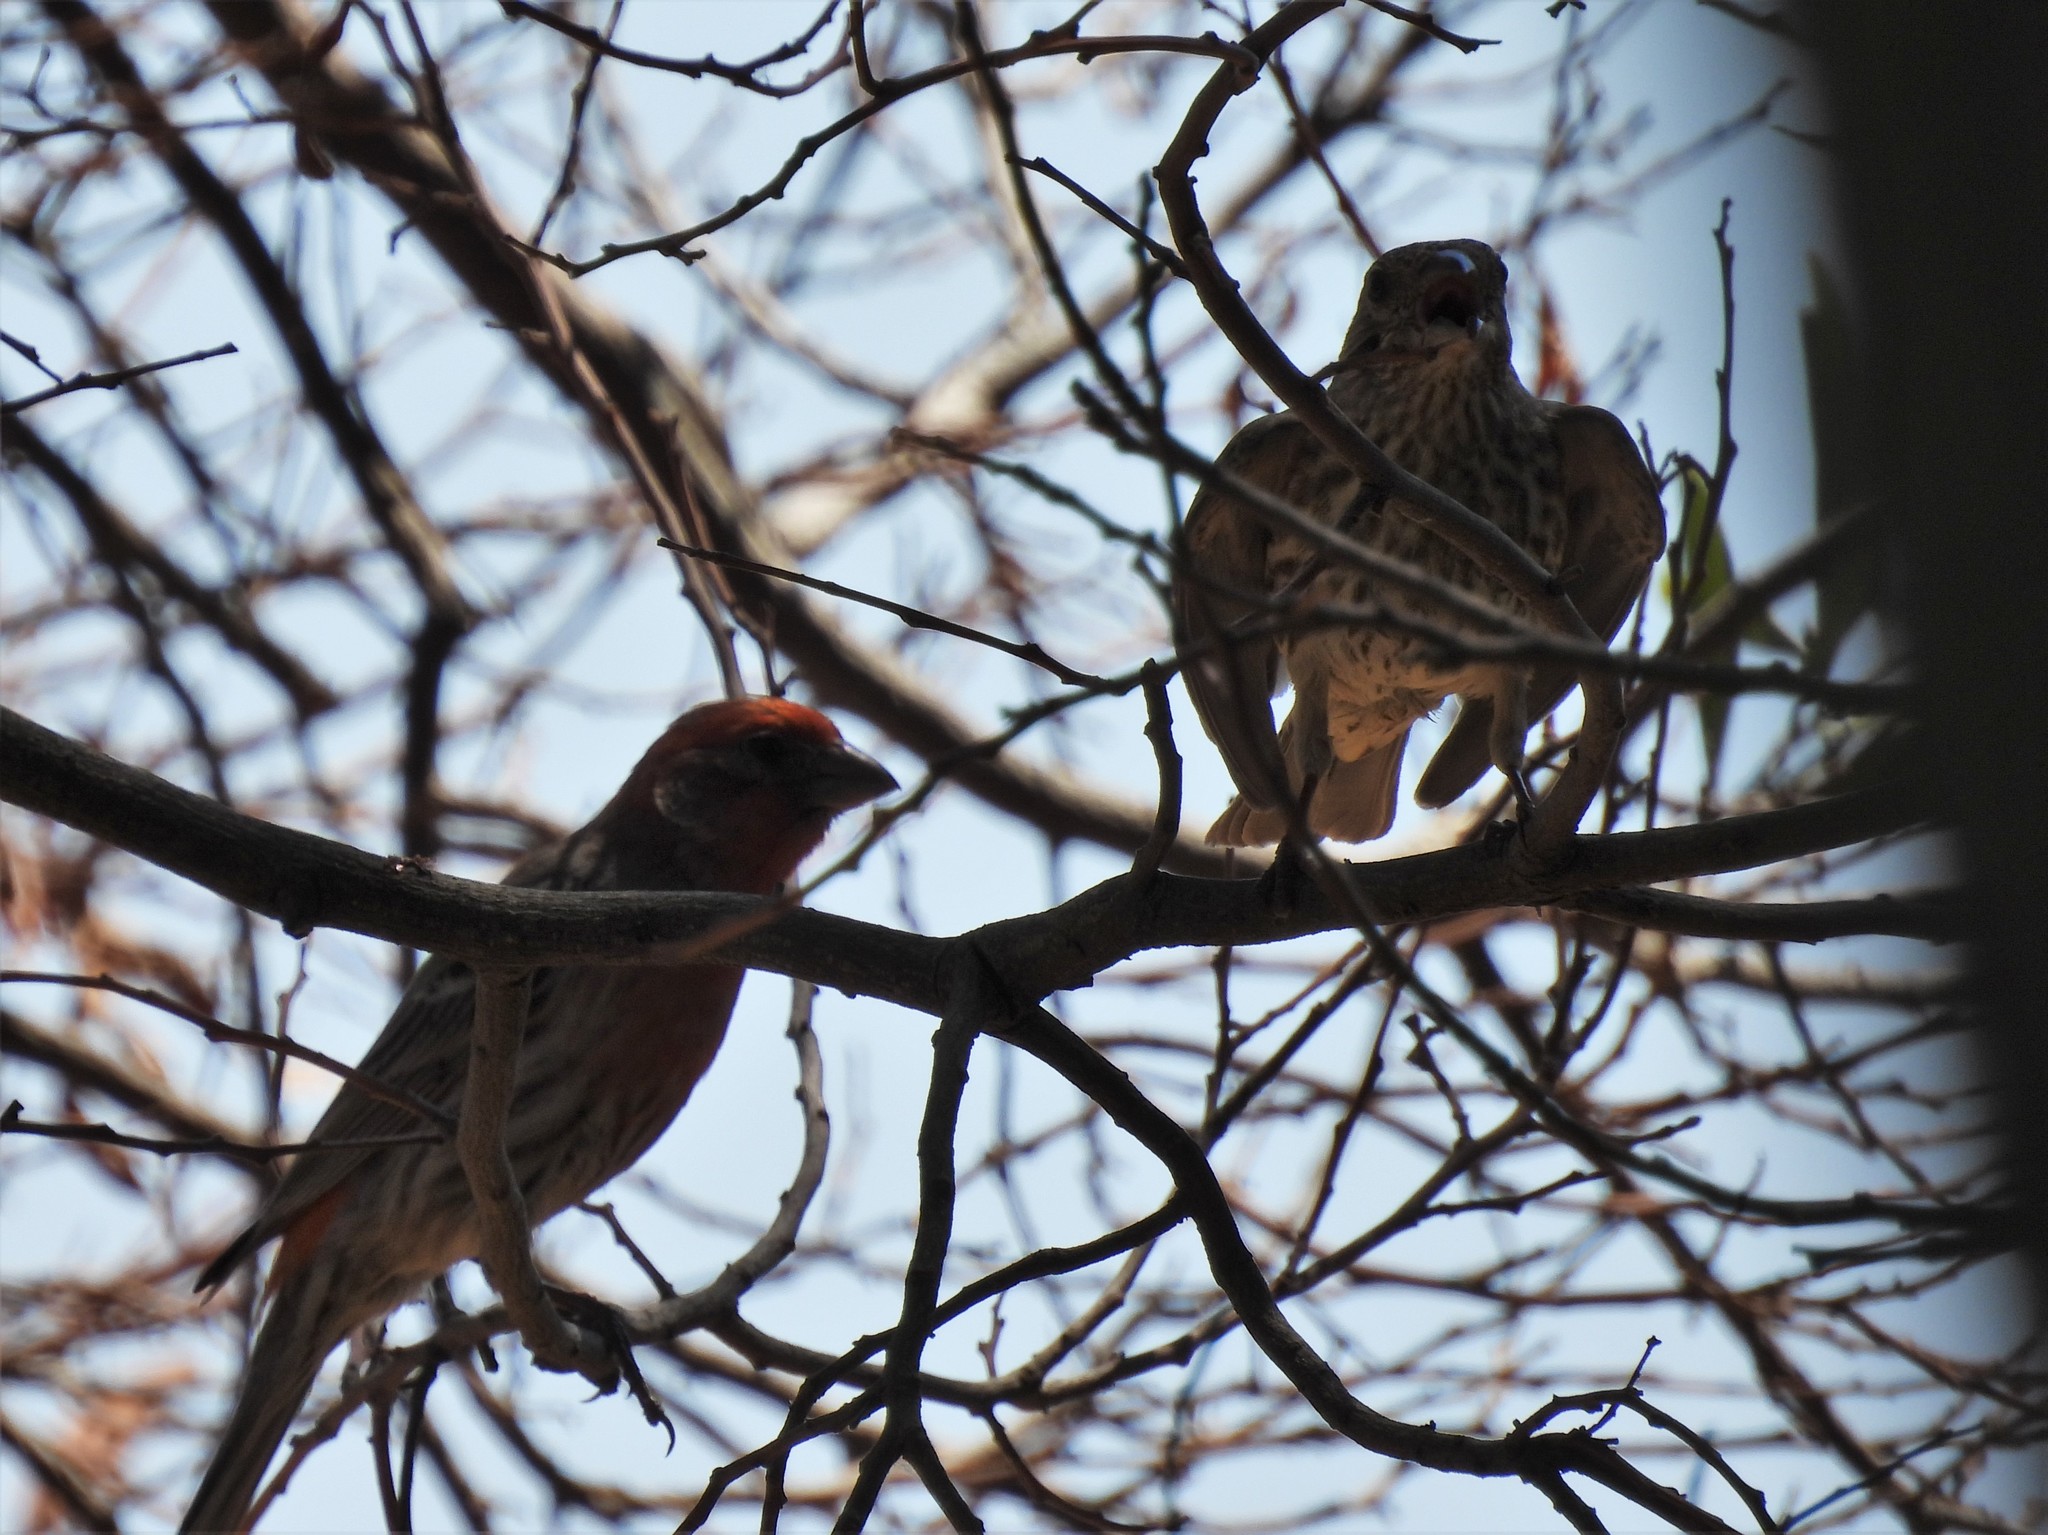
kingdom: Animalia
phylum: Chordata
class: Aves
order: Passeriformes
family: Fringillidae
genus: Haemorhous
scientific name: Haemorhous mexicanus
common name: House finch
